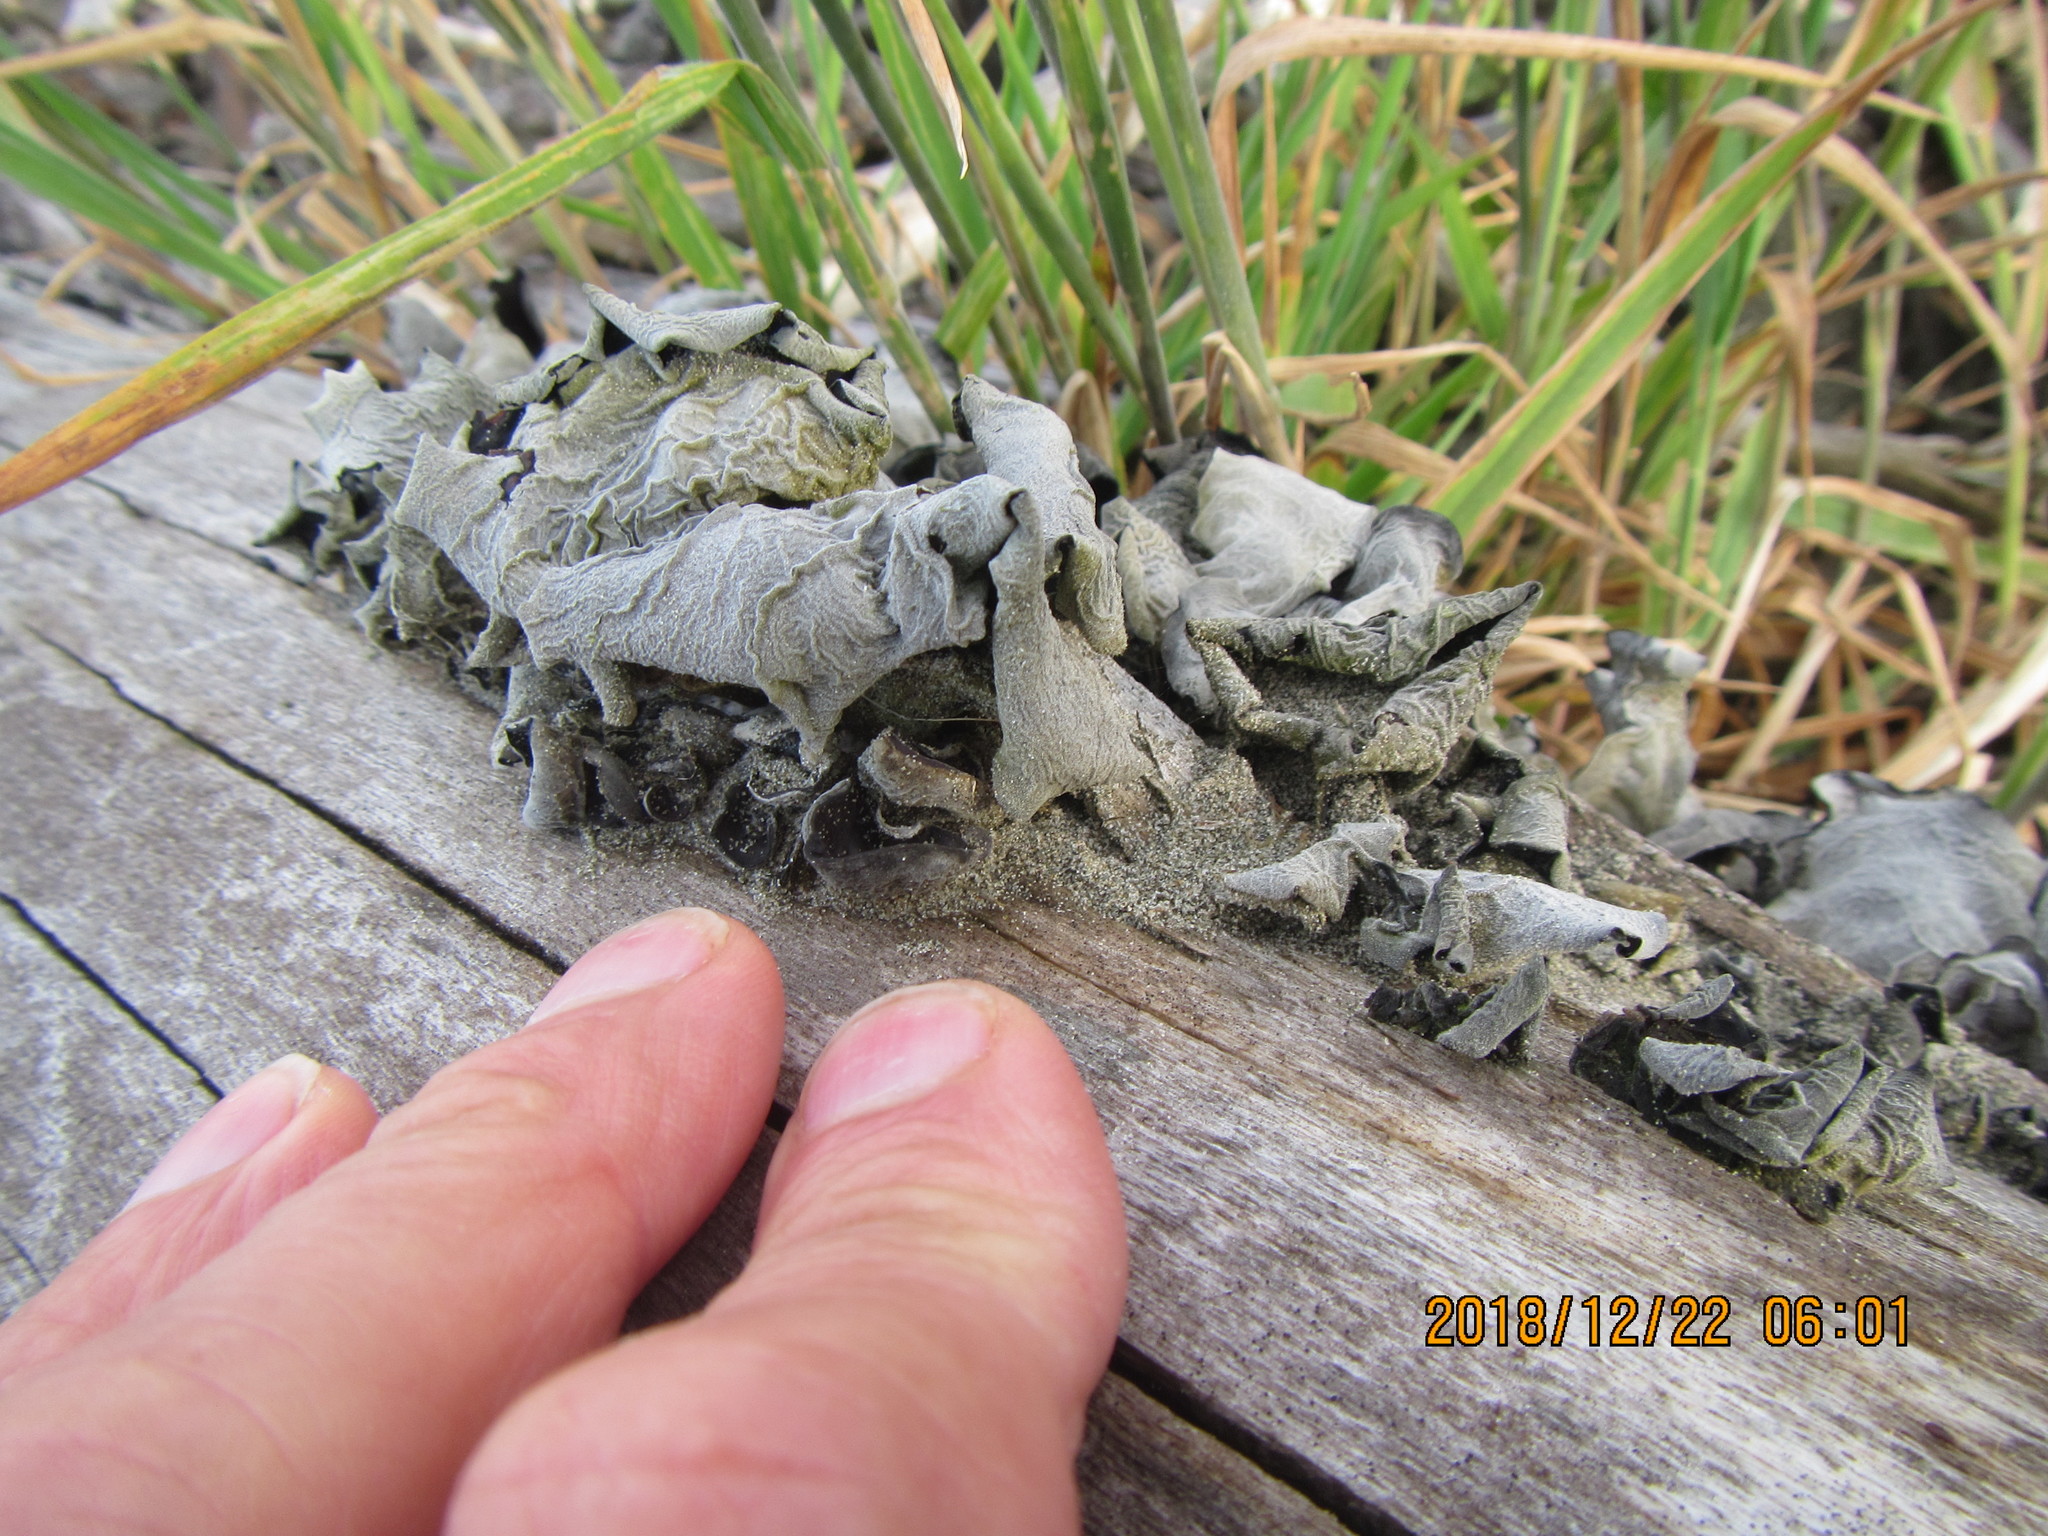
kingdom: Fungi
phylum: Basidiomycota
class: Agaricomycetes
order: Auriculariales
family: Auriculariaceae
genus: Auricularia
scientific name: Auricularia cornea
